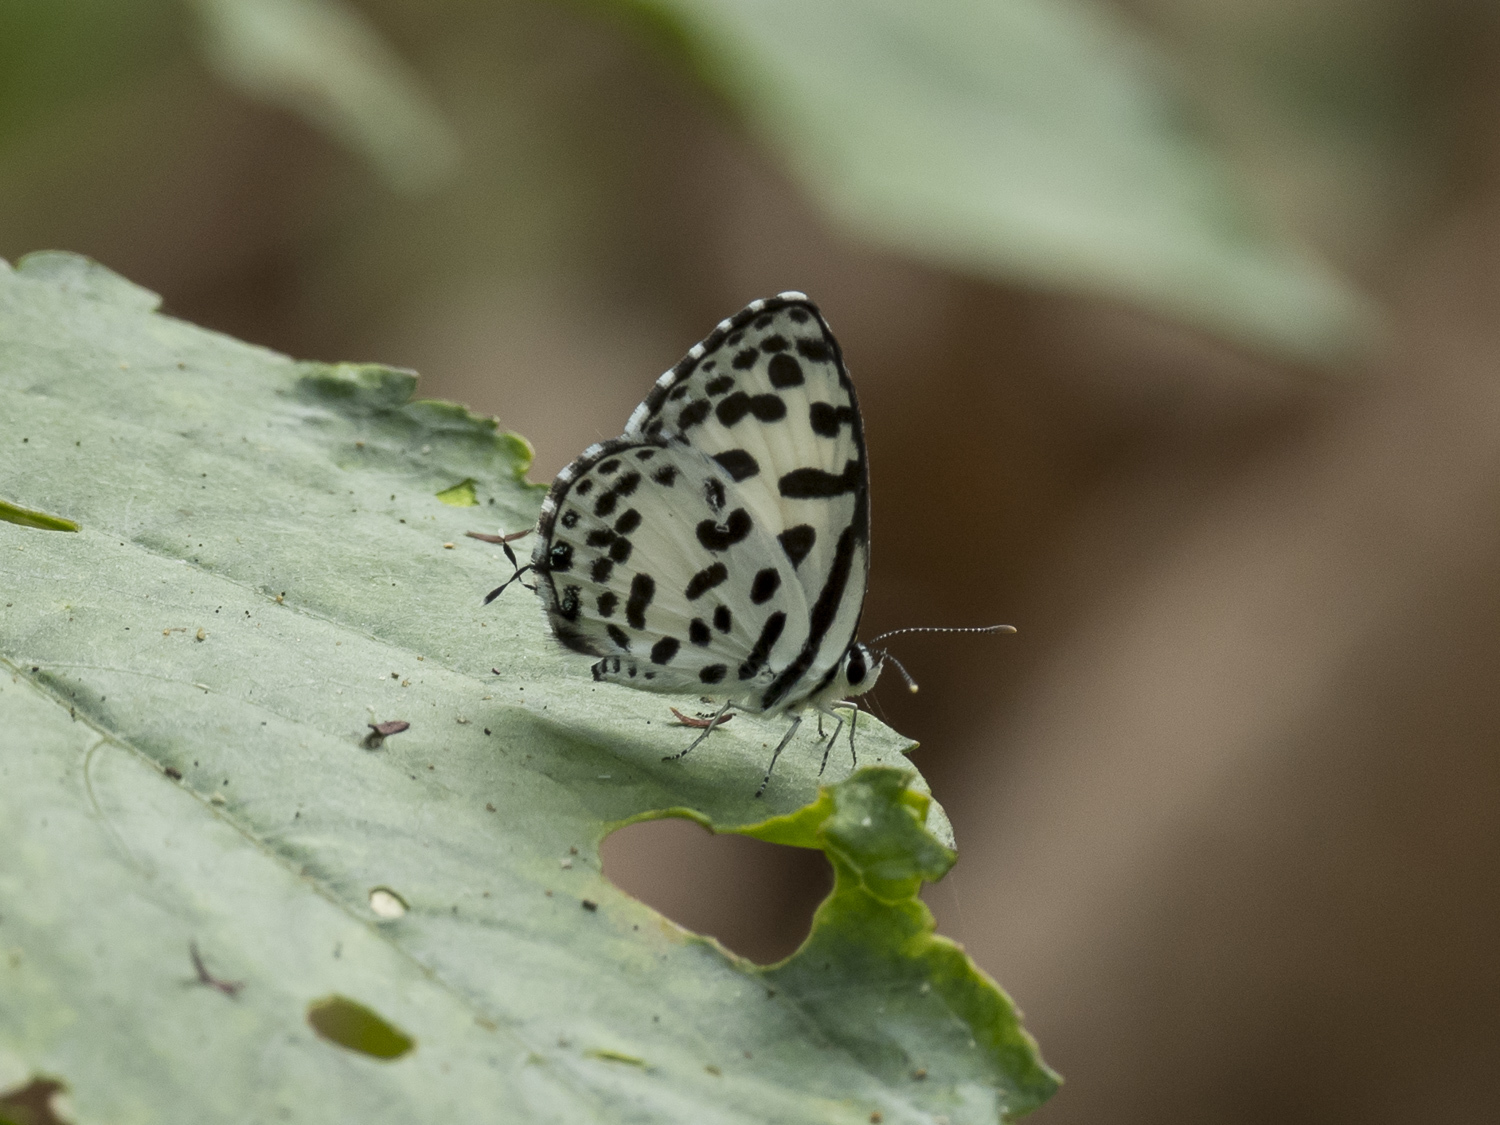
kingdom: Animalia
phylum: Arthropoda
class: Insecta
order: Lepidoptera
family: Lycaenidae
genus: Castalius
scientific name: Castalius rosimon
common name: Common pierrot
